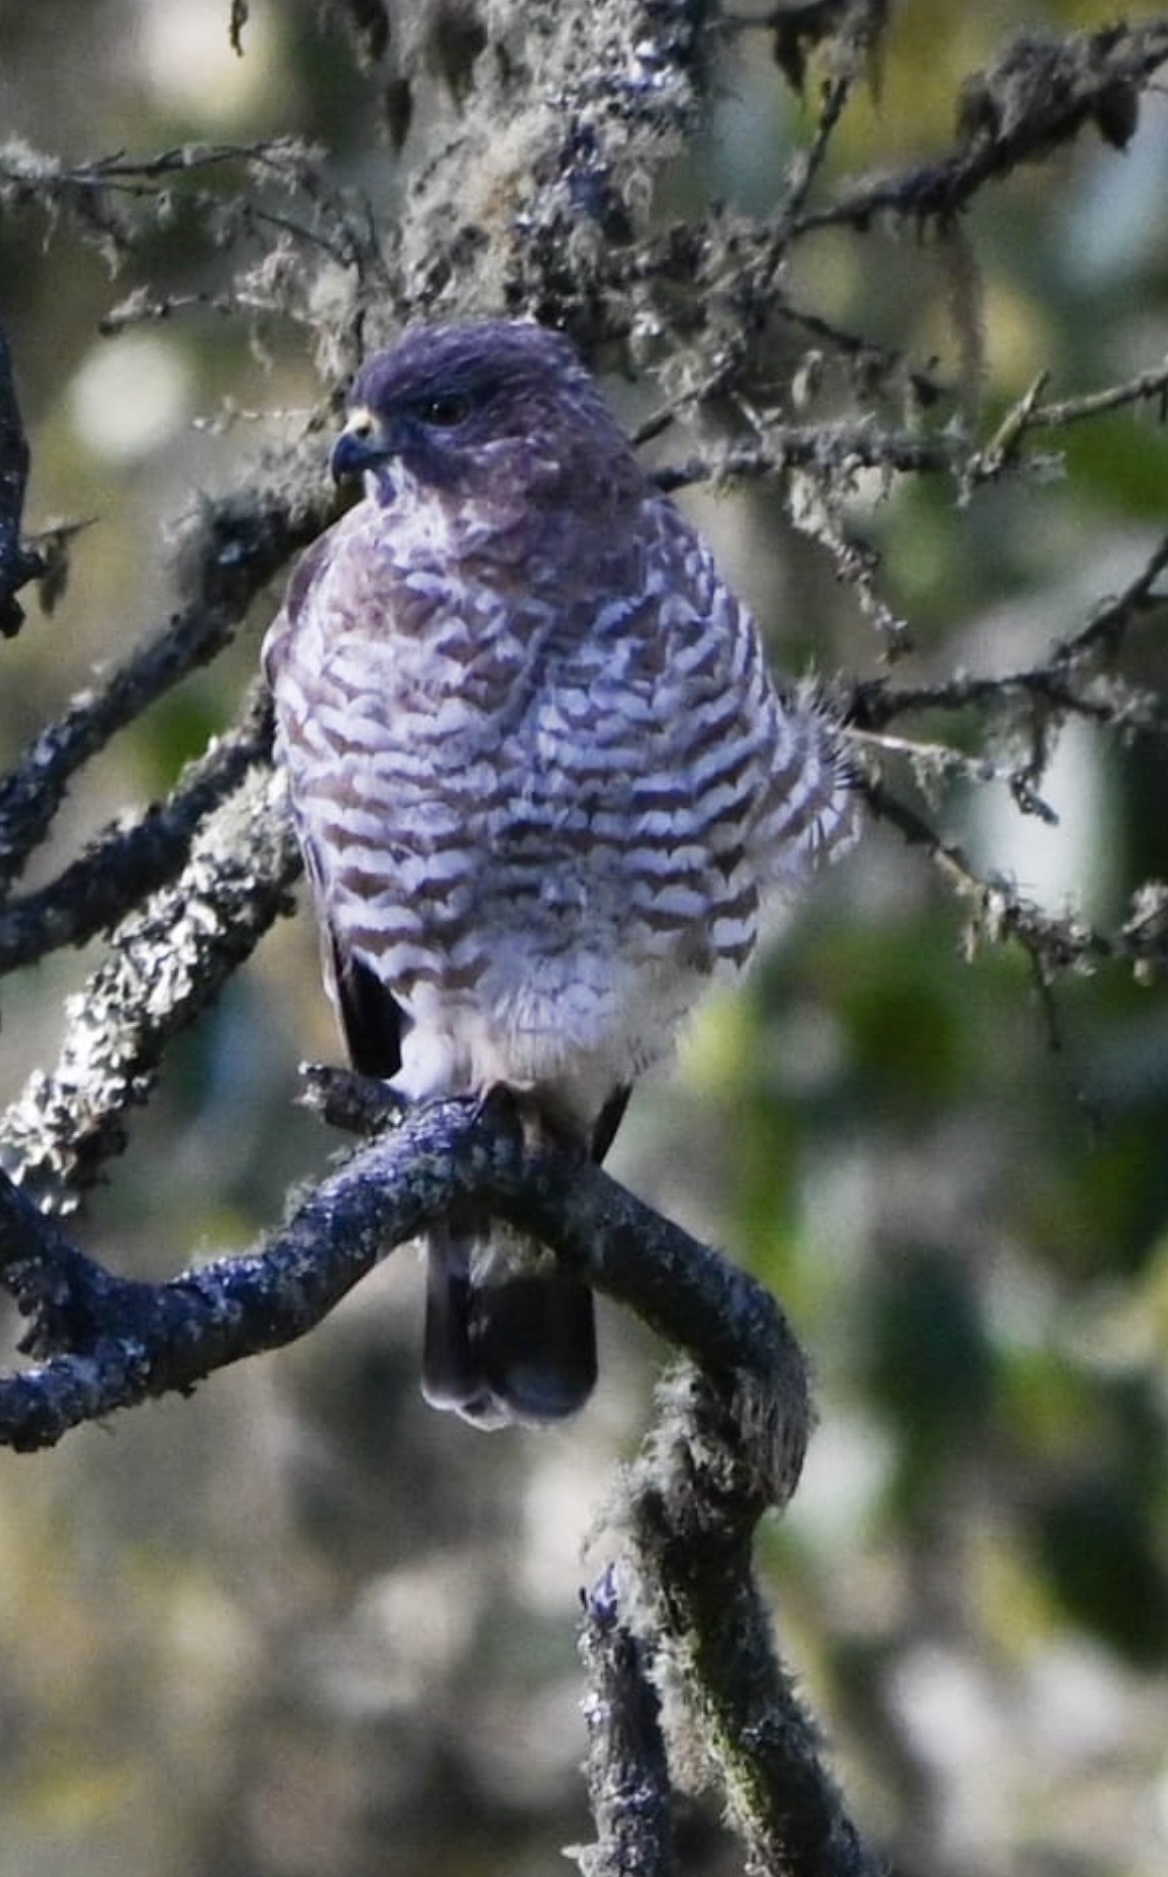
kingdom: Animalia
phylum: Chordata
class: Aves
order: Accipitriformes
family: Accipitridae
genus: Buteo
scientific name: Buteo platypterus
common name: Broad-winged hawk
